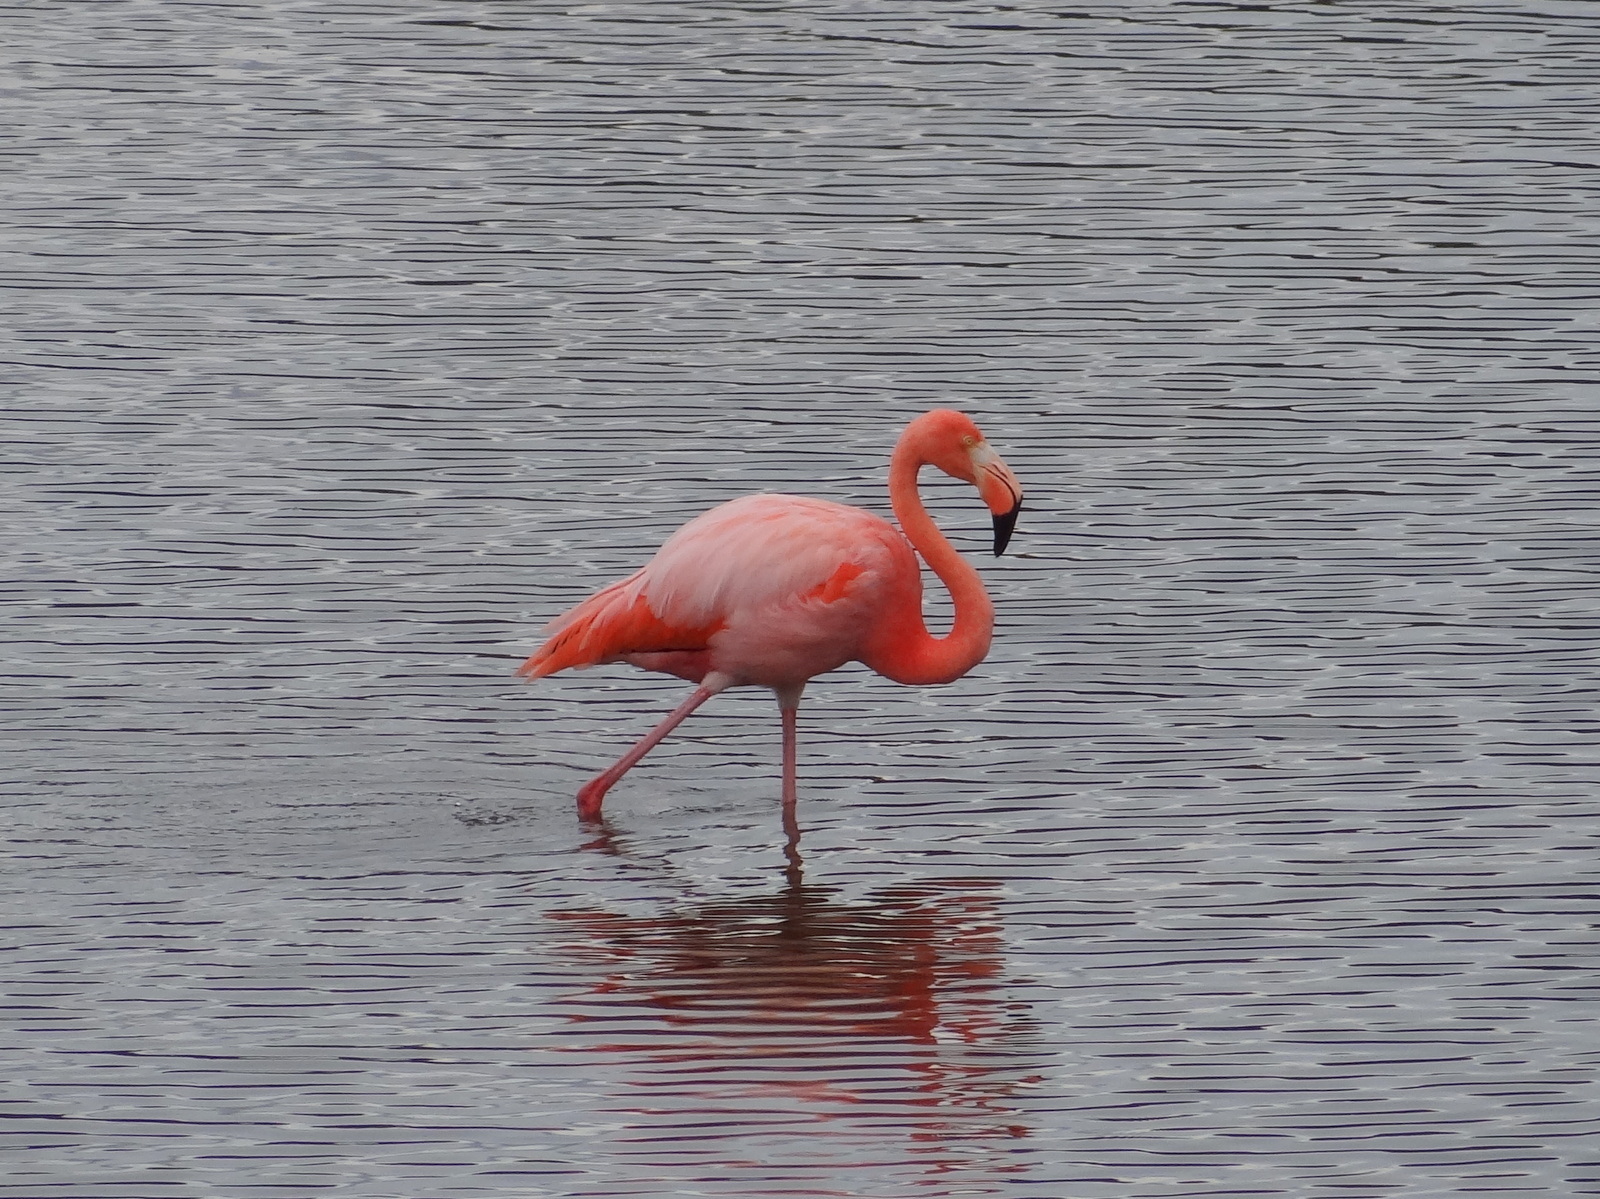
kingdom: Animalia
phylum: Chordata
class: Aves
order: Phoenicopteriformes
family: Phoenicopteridae
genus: Phoenicopterus
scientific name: Phoenicopterus ruber
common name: American flamingo
